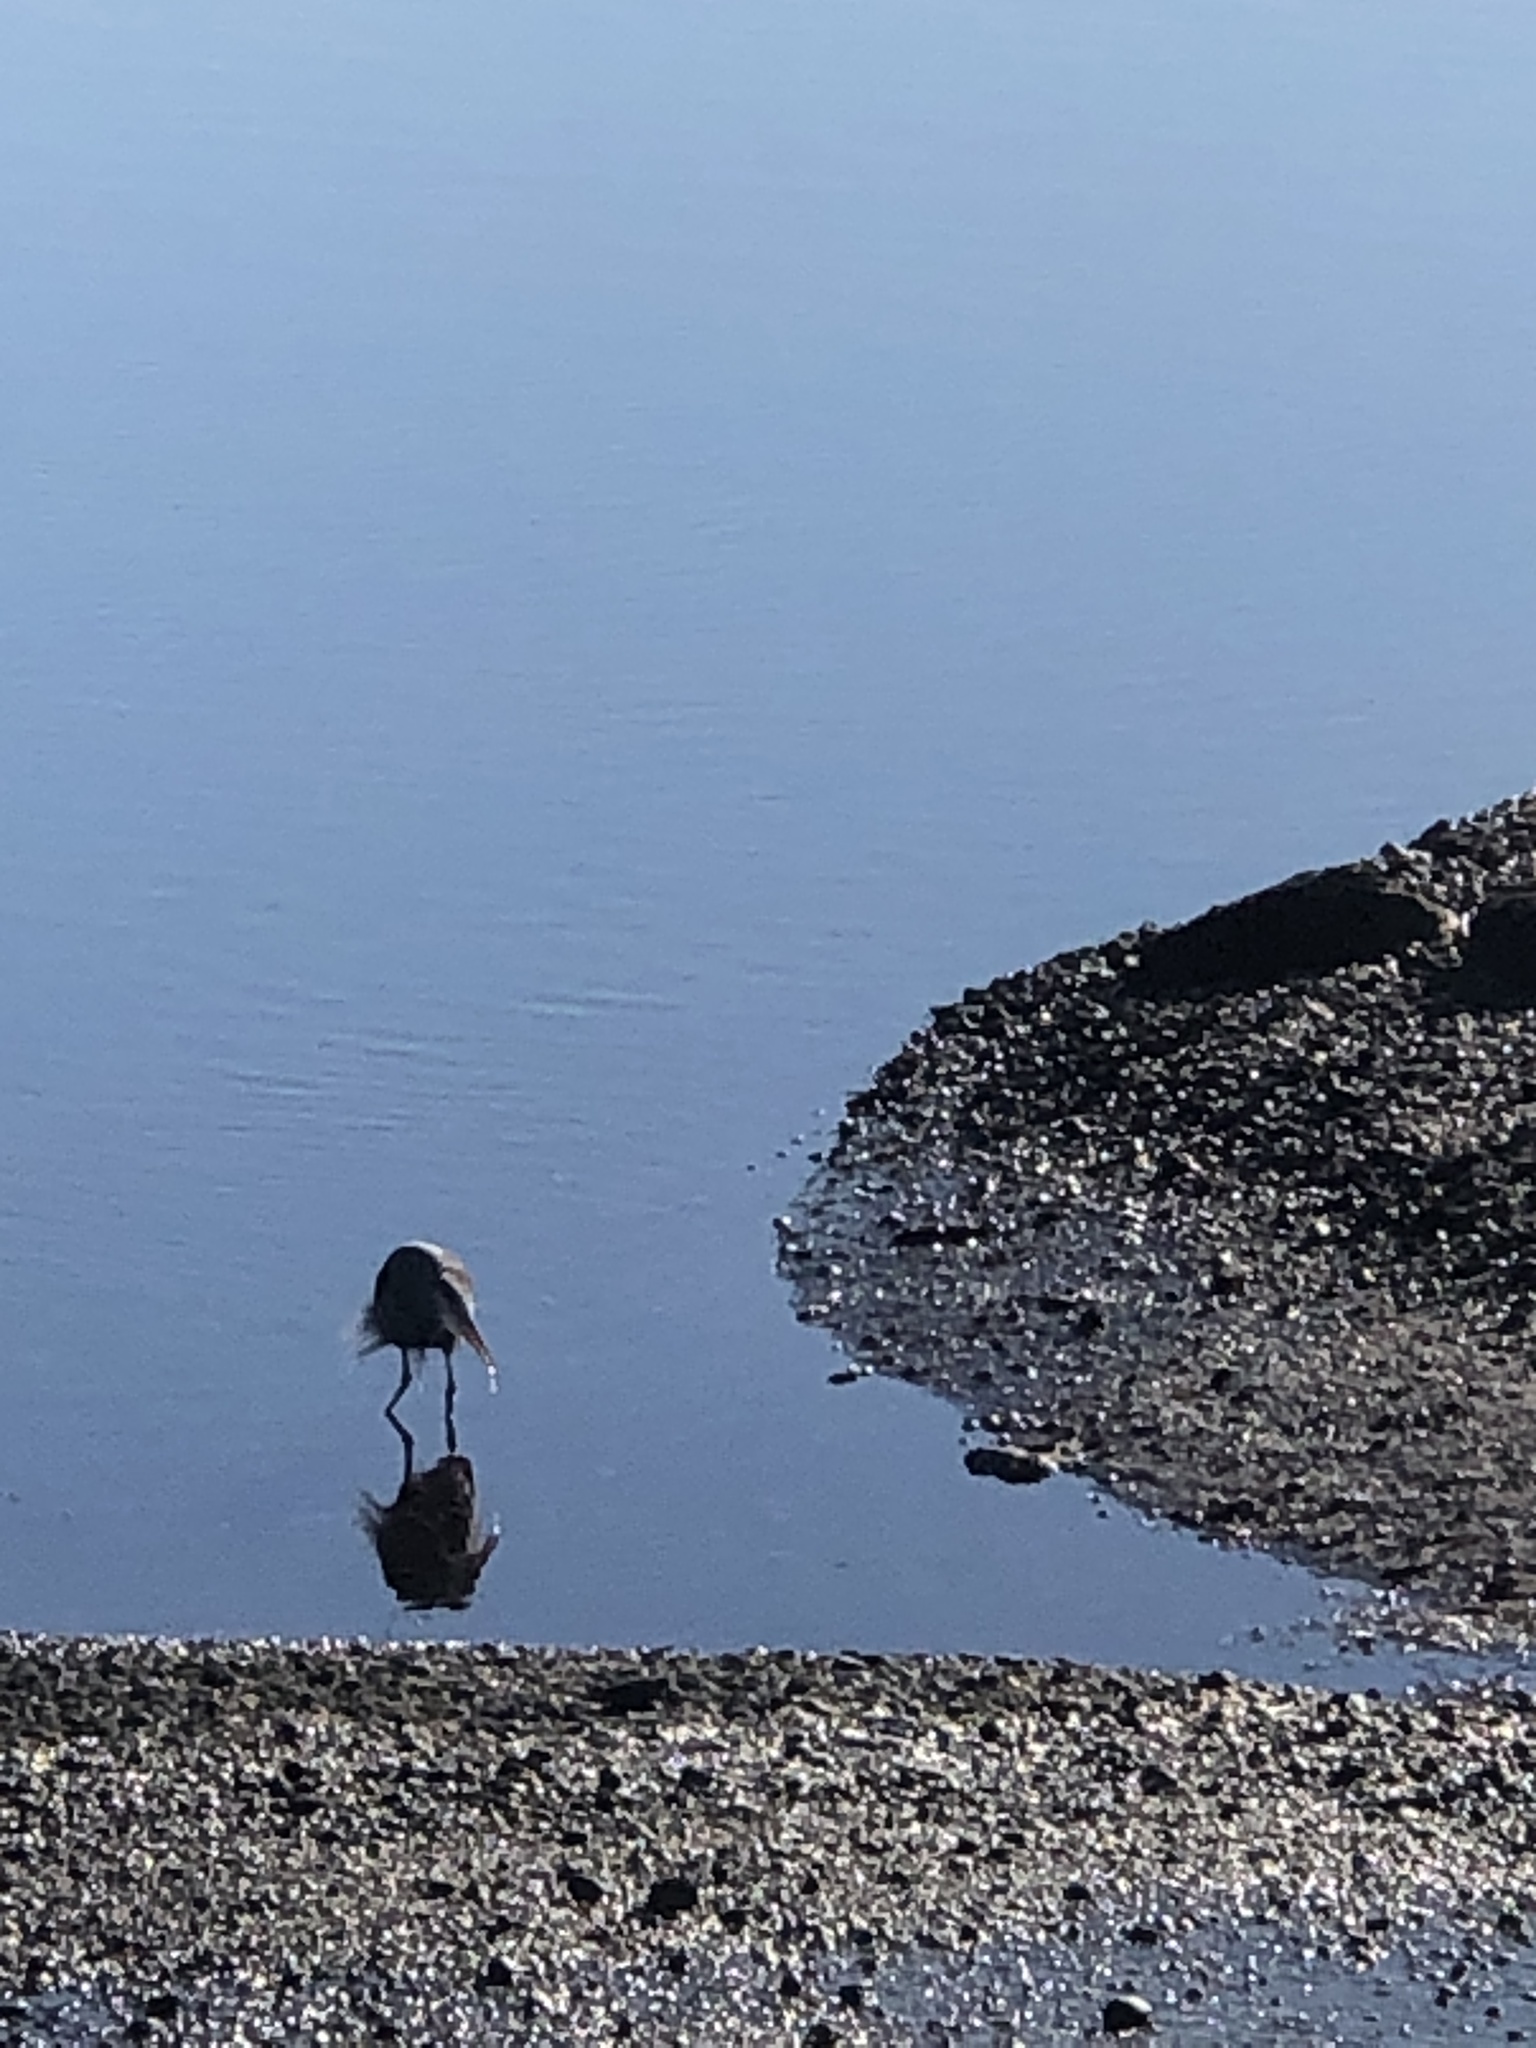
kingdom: Animalia
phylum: Chordata
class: Aves
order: Pelecaniformes
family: Ardeidae
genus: Ardea
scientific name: Ardea herodias
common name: Great blue heron
